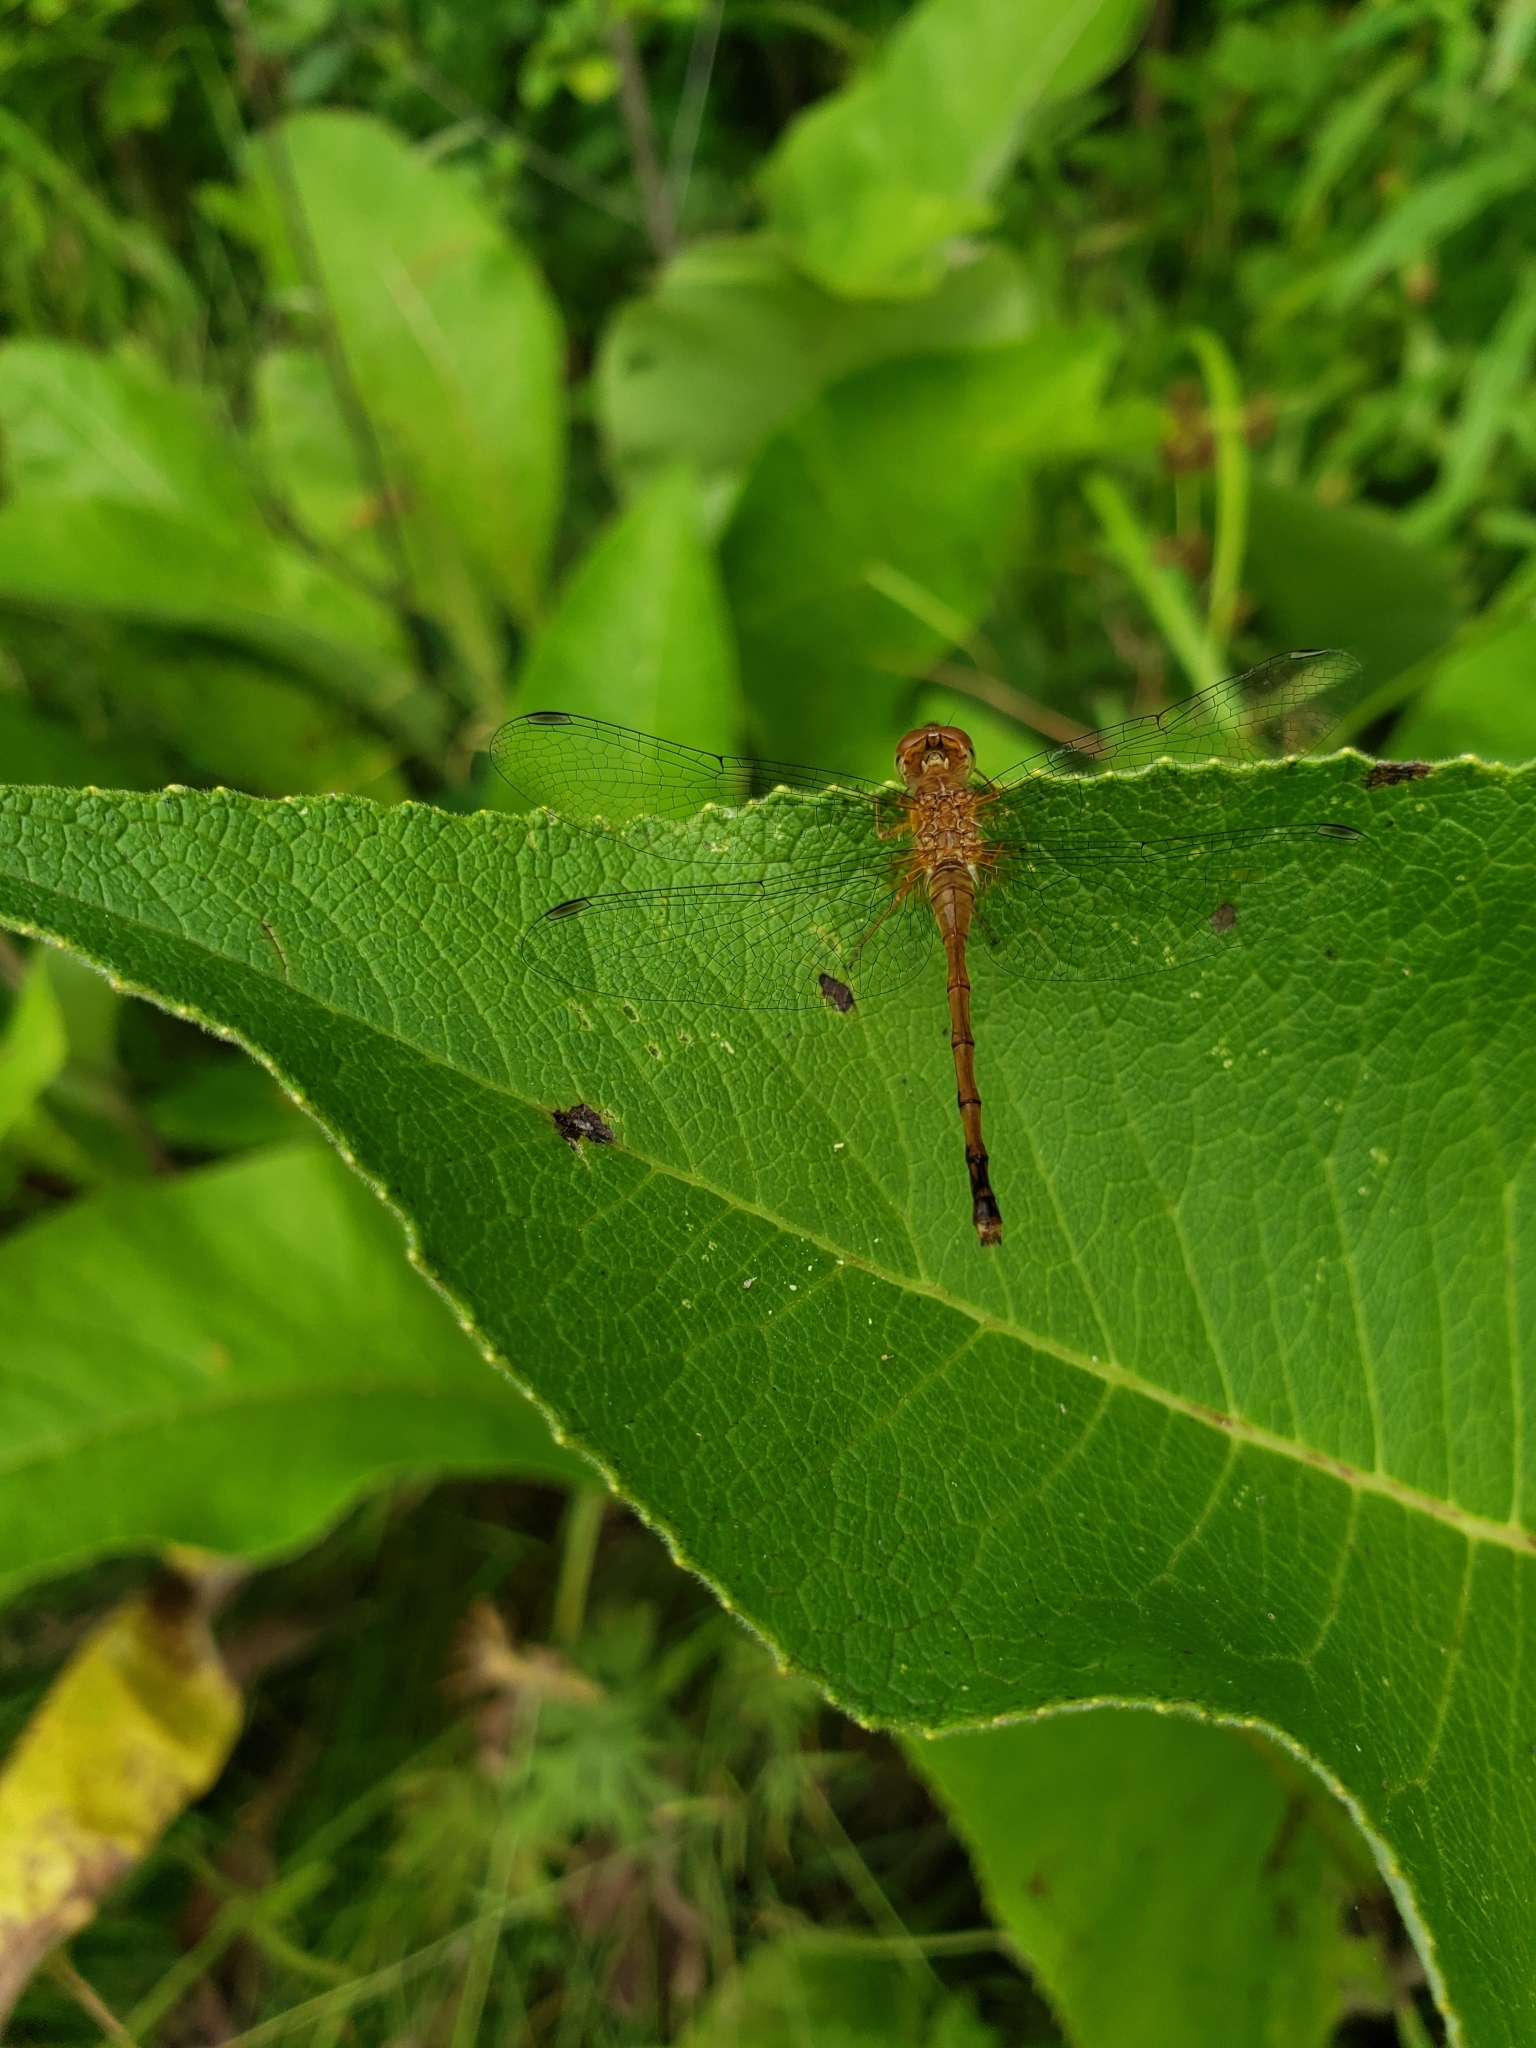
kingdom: Animalia
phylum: Arthropoda
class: Insecta
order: Odonata
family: Libellulidae
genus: Sympetrum
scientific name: Sympetrum vicinum
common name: Autumn meadowhawk
